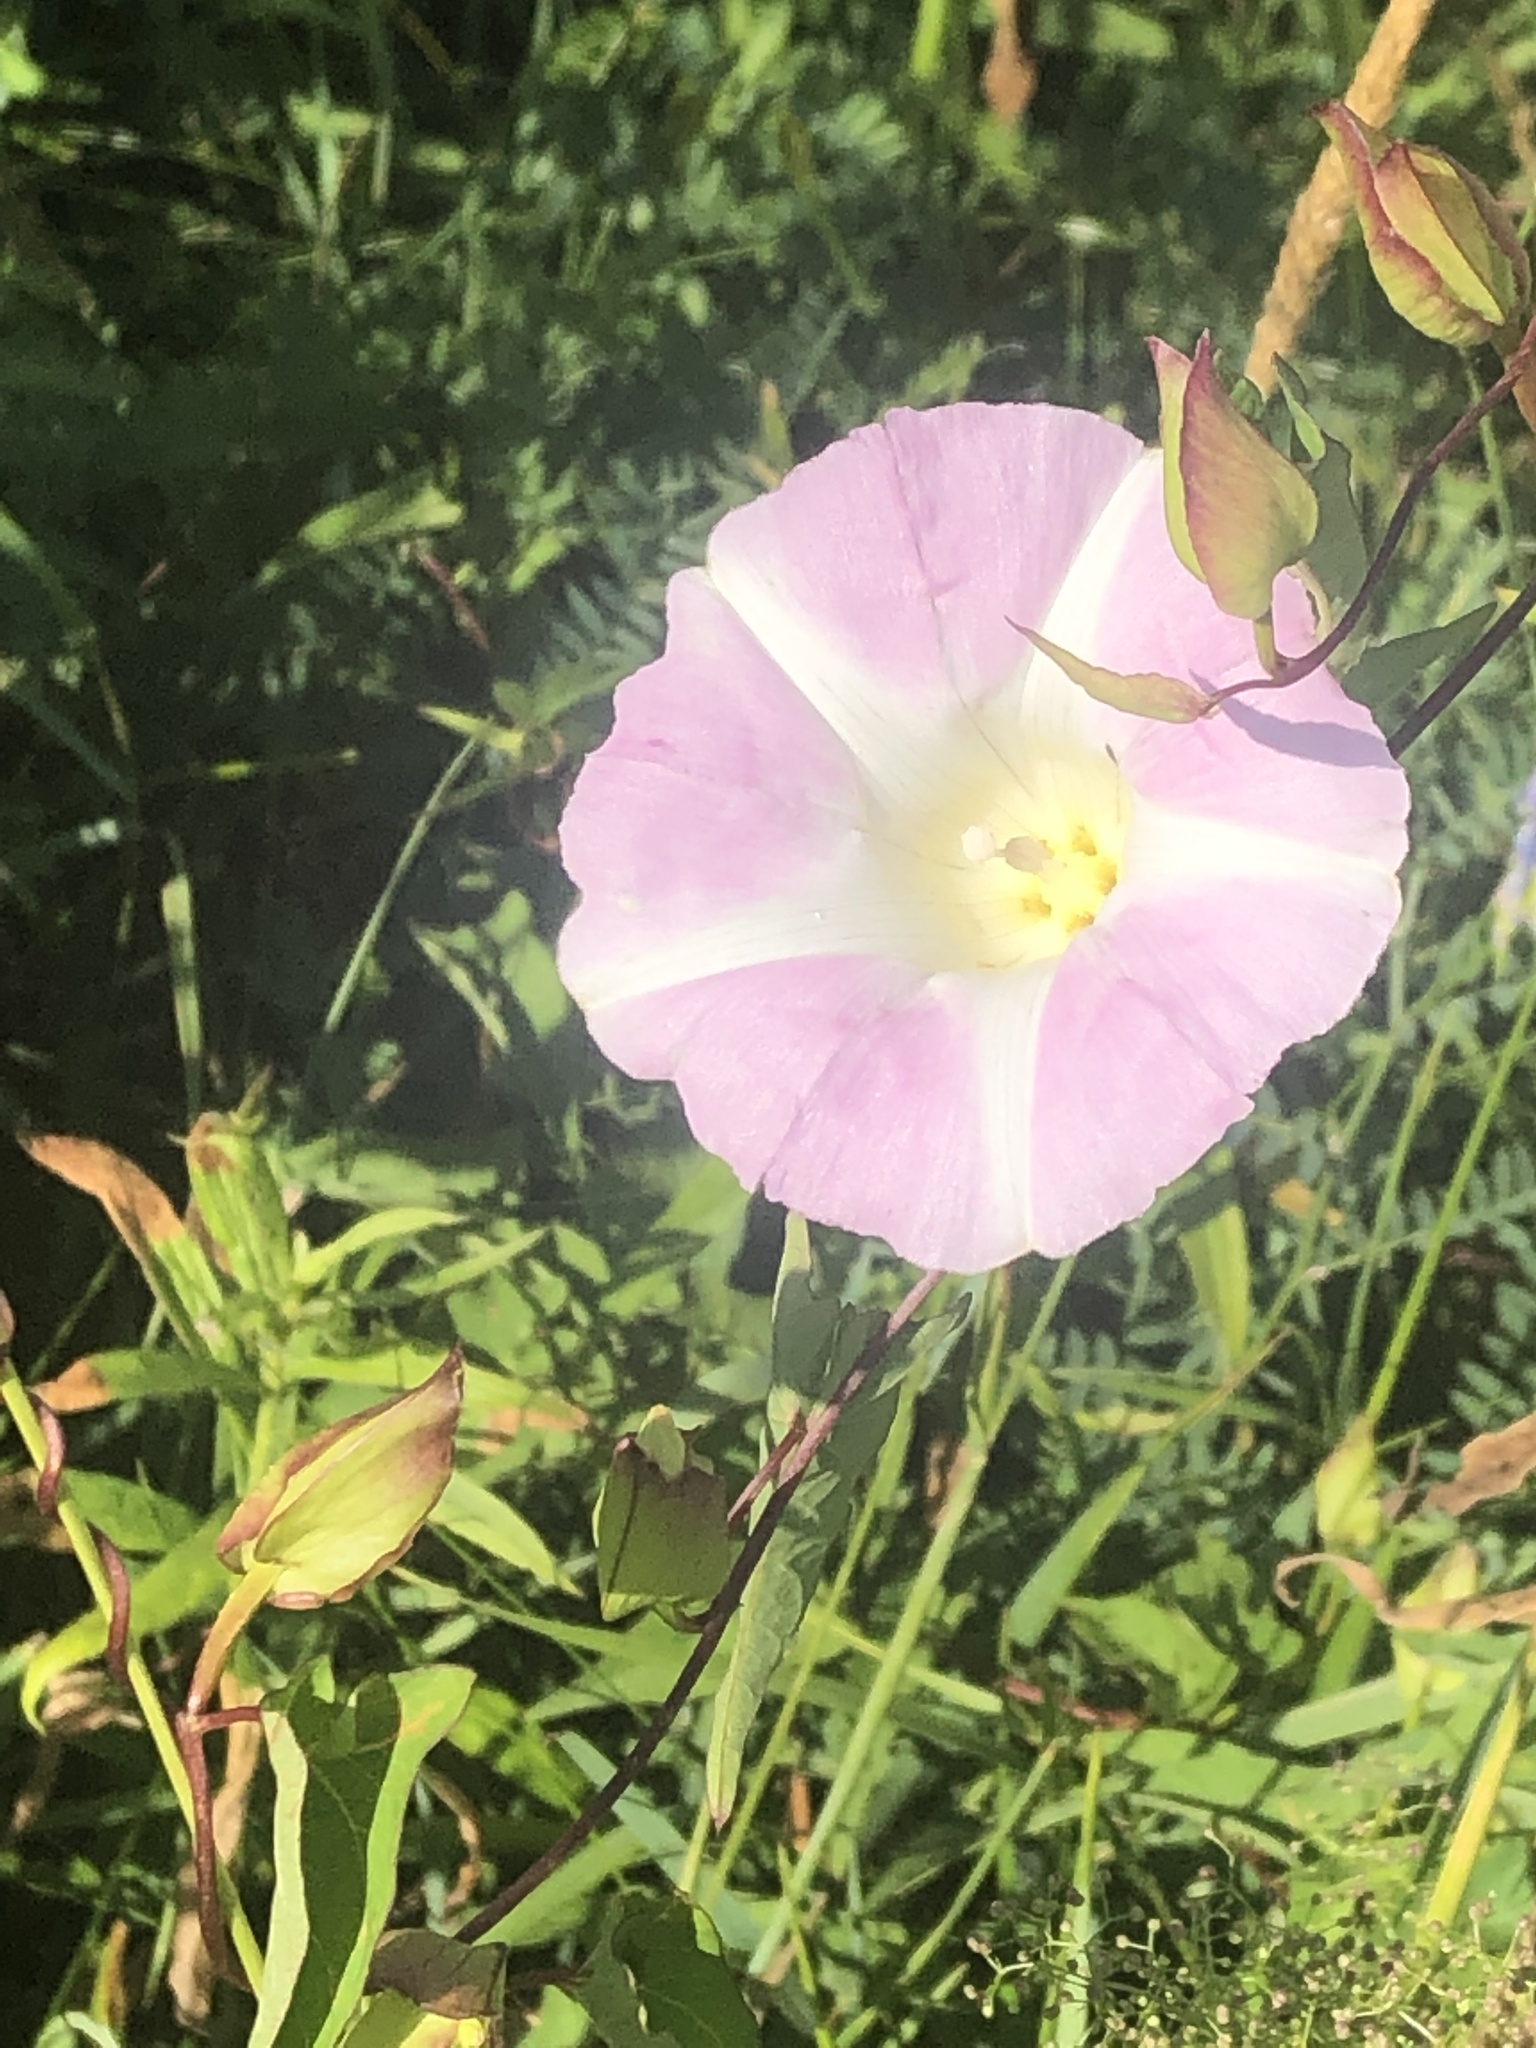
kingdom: Plantae
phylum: Tracheophyta
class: Magnoliopsida
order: Solanales
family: Convolvulaceae
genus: Calystegia
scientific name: Calystegia sepium
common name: Hedge bindweed
